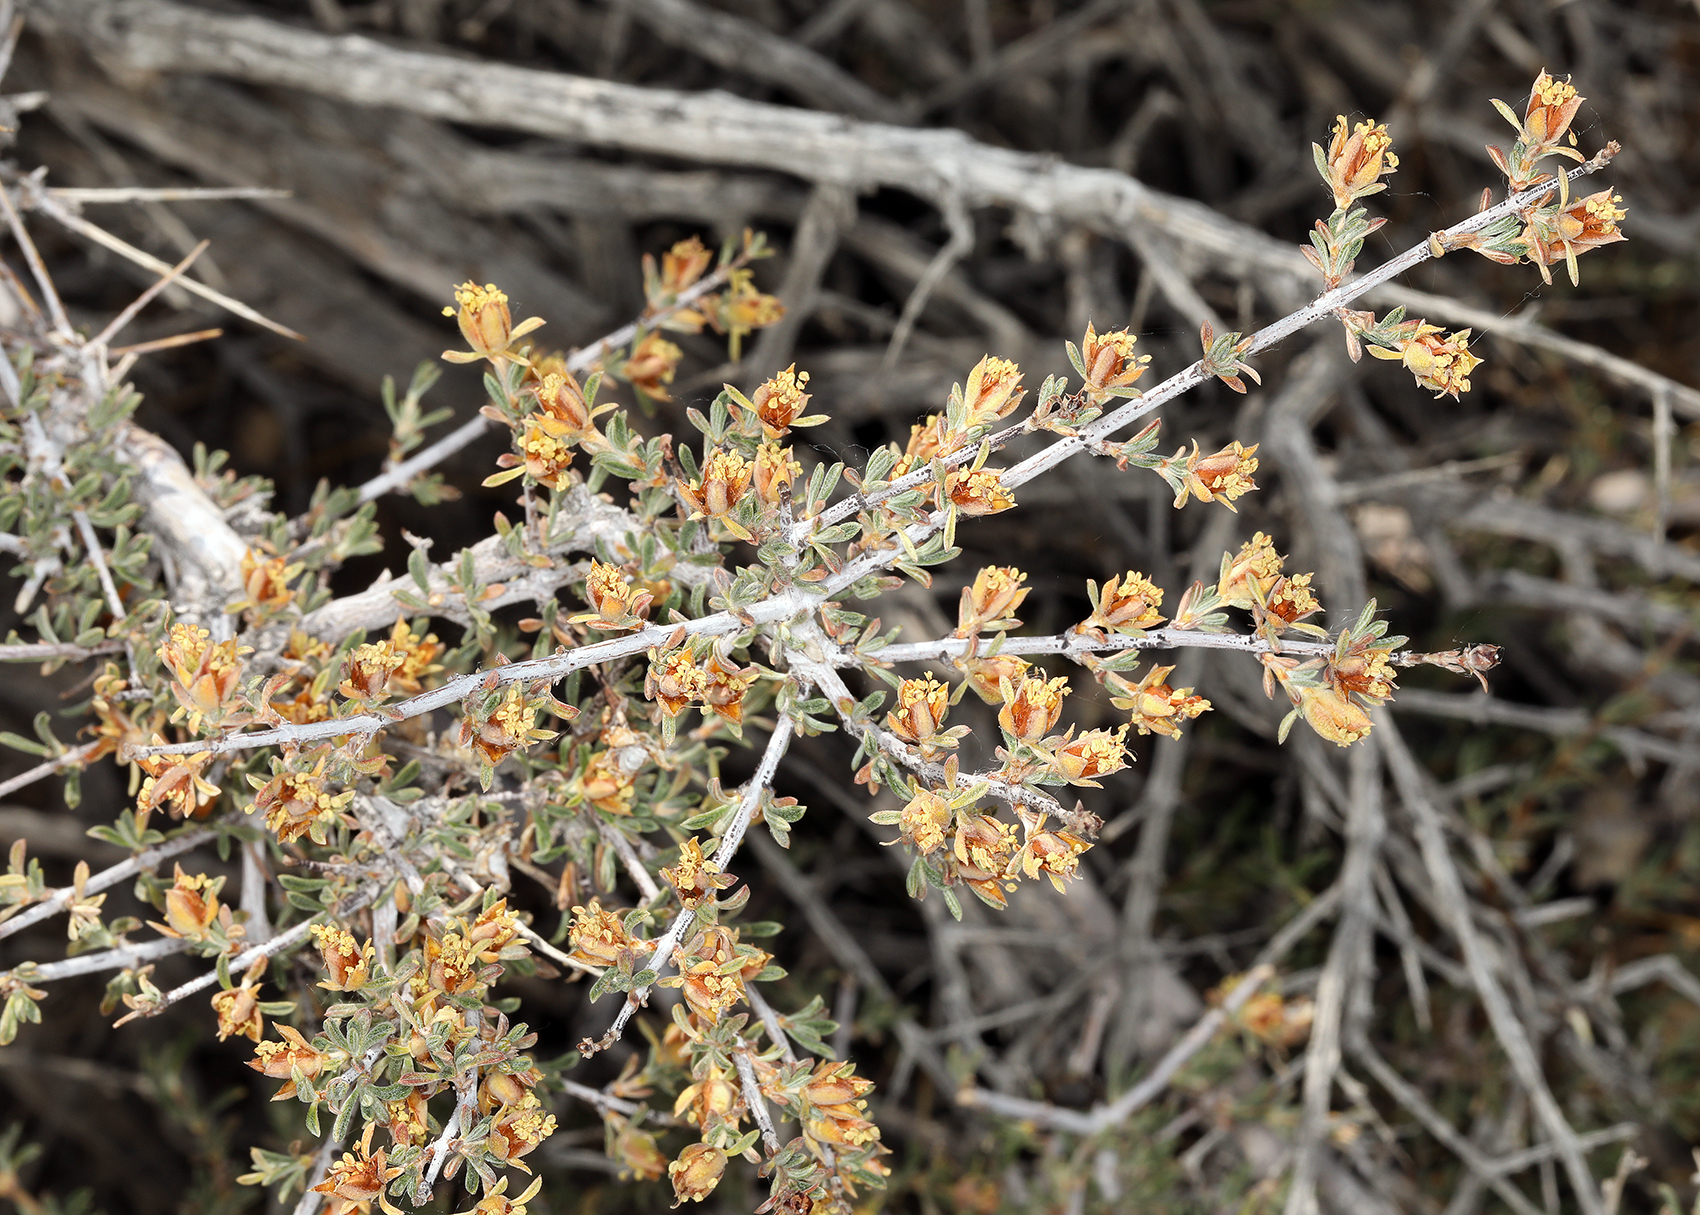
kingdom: Plantae
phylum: Tracheophyta
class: Magnoliopsida
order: Rosales
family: Rosaceae
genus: Coleogyne
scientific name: Coleogyne ramosissima
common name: Blackbrush
